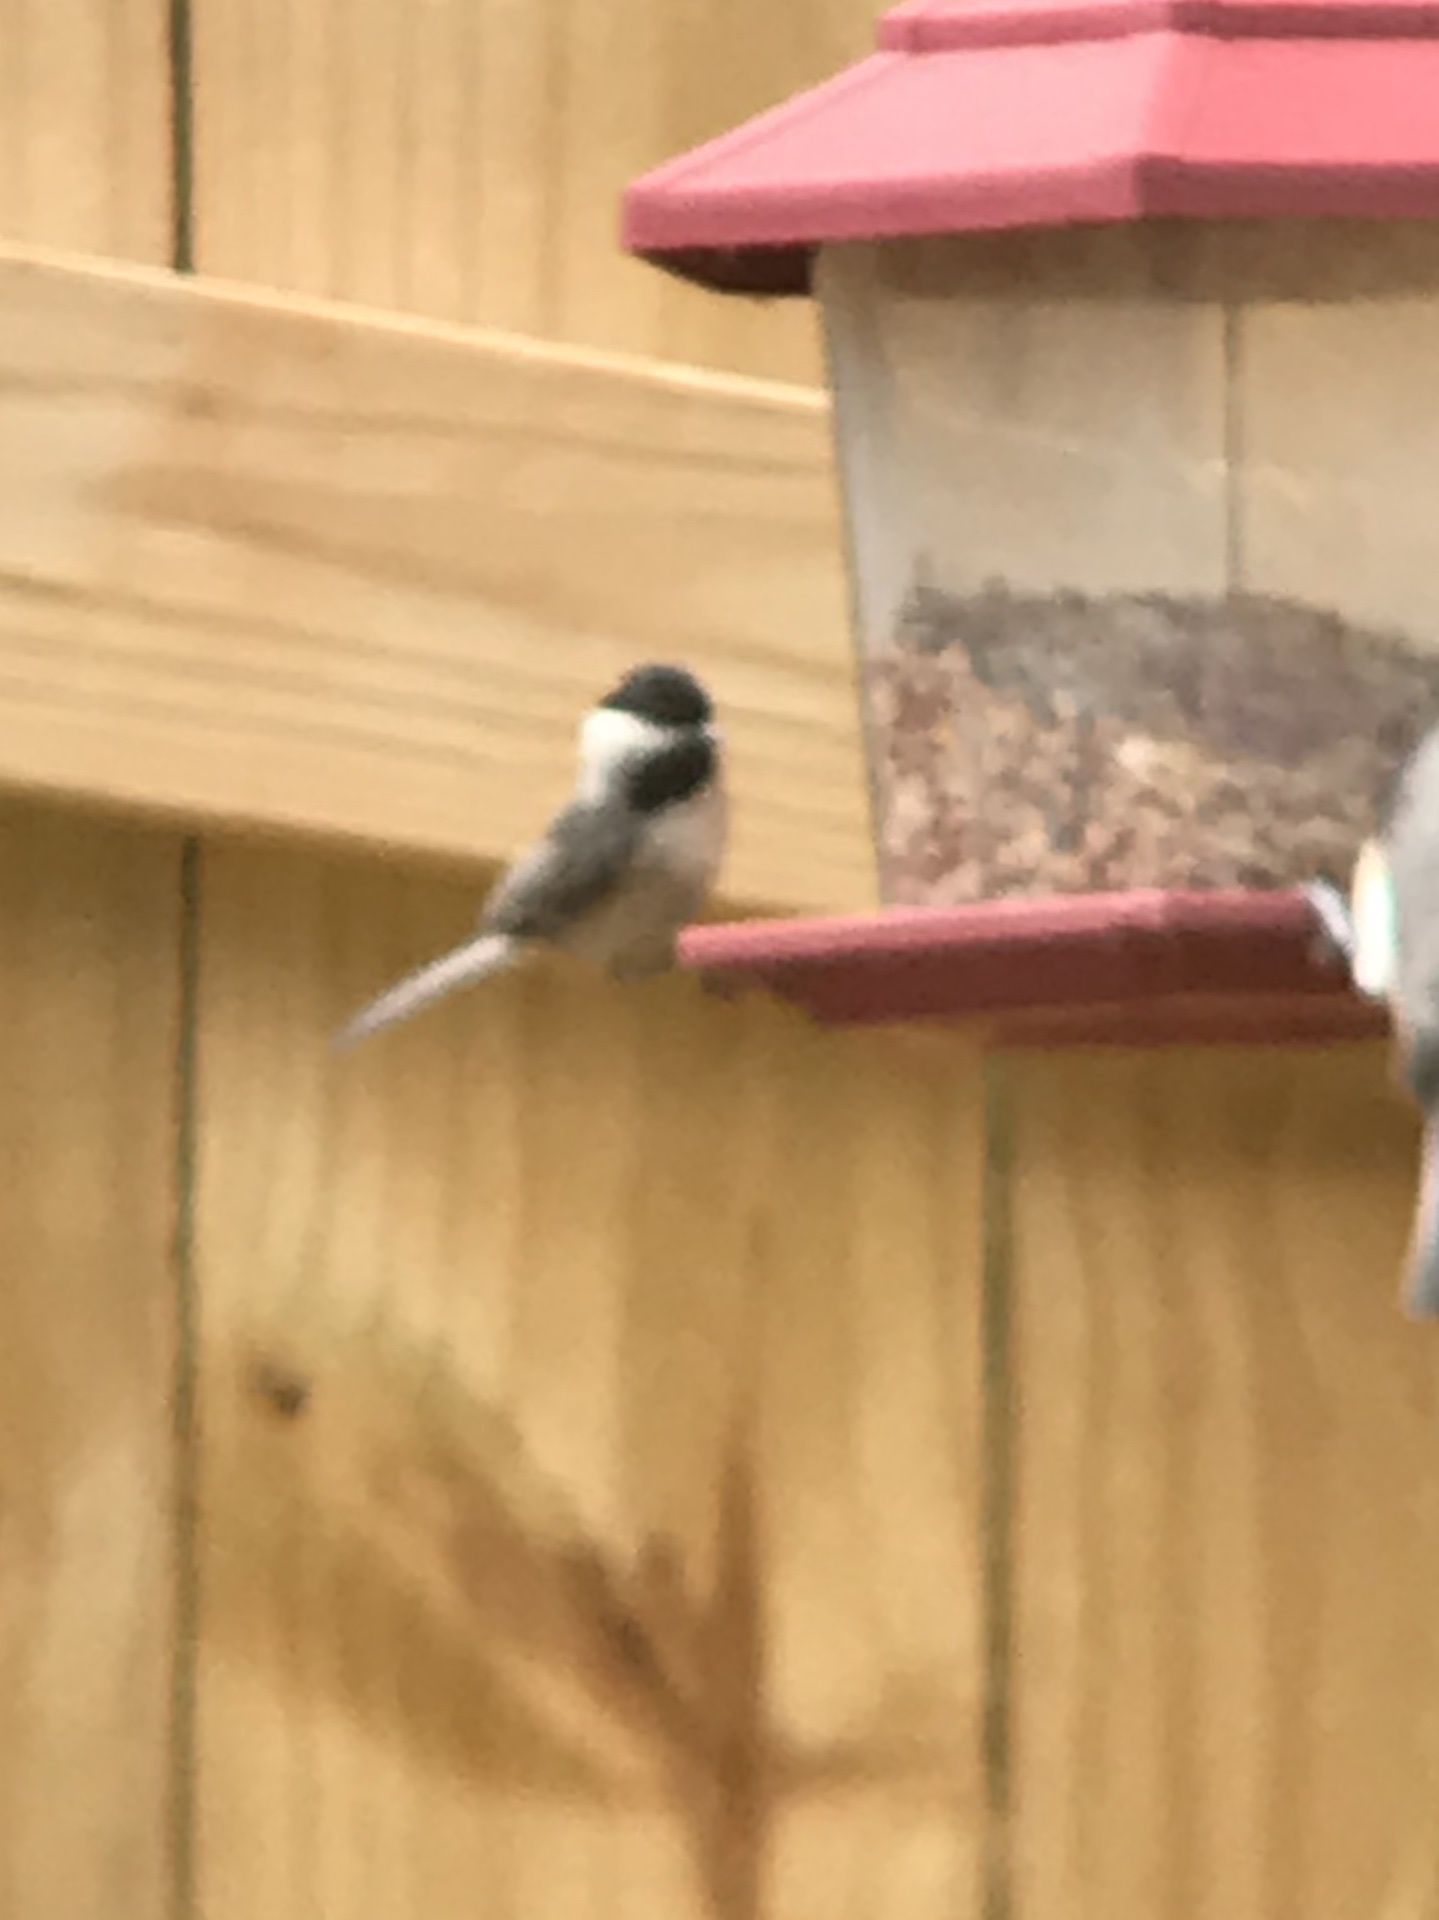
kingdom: Animalia
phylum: Chordata
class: Aves
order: Passeriformes
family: Paridae
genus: Poecile
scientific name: Poecile carolinensis
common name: Carolina chickadee
